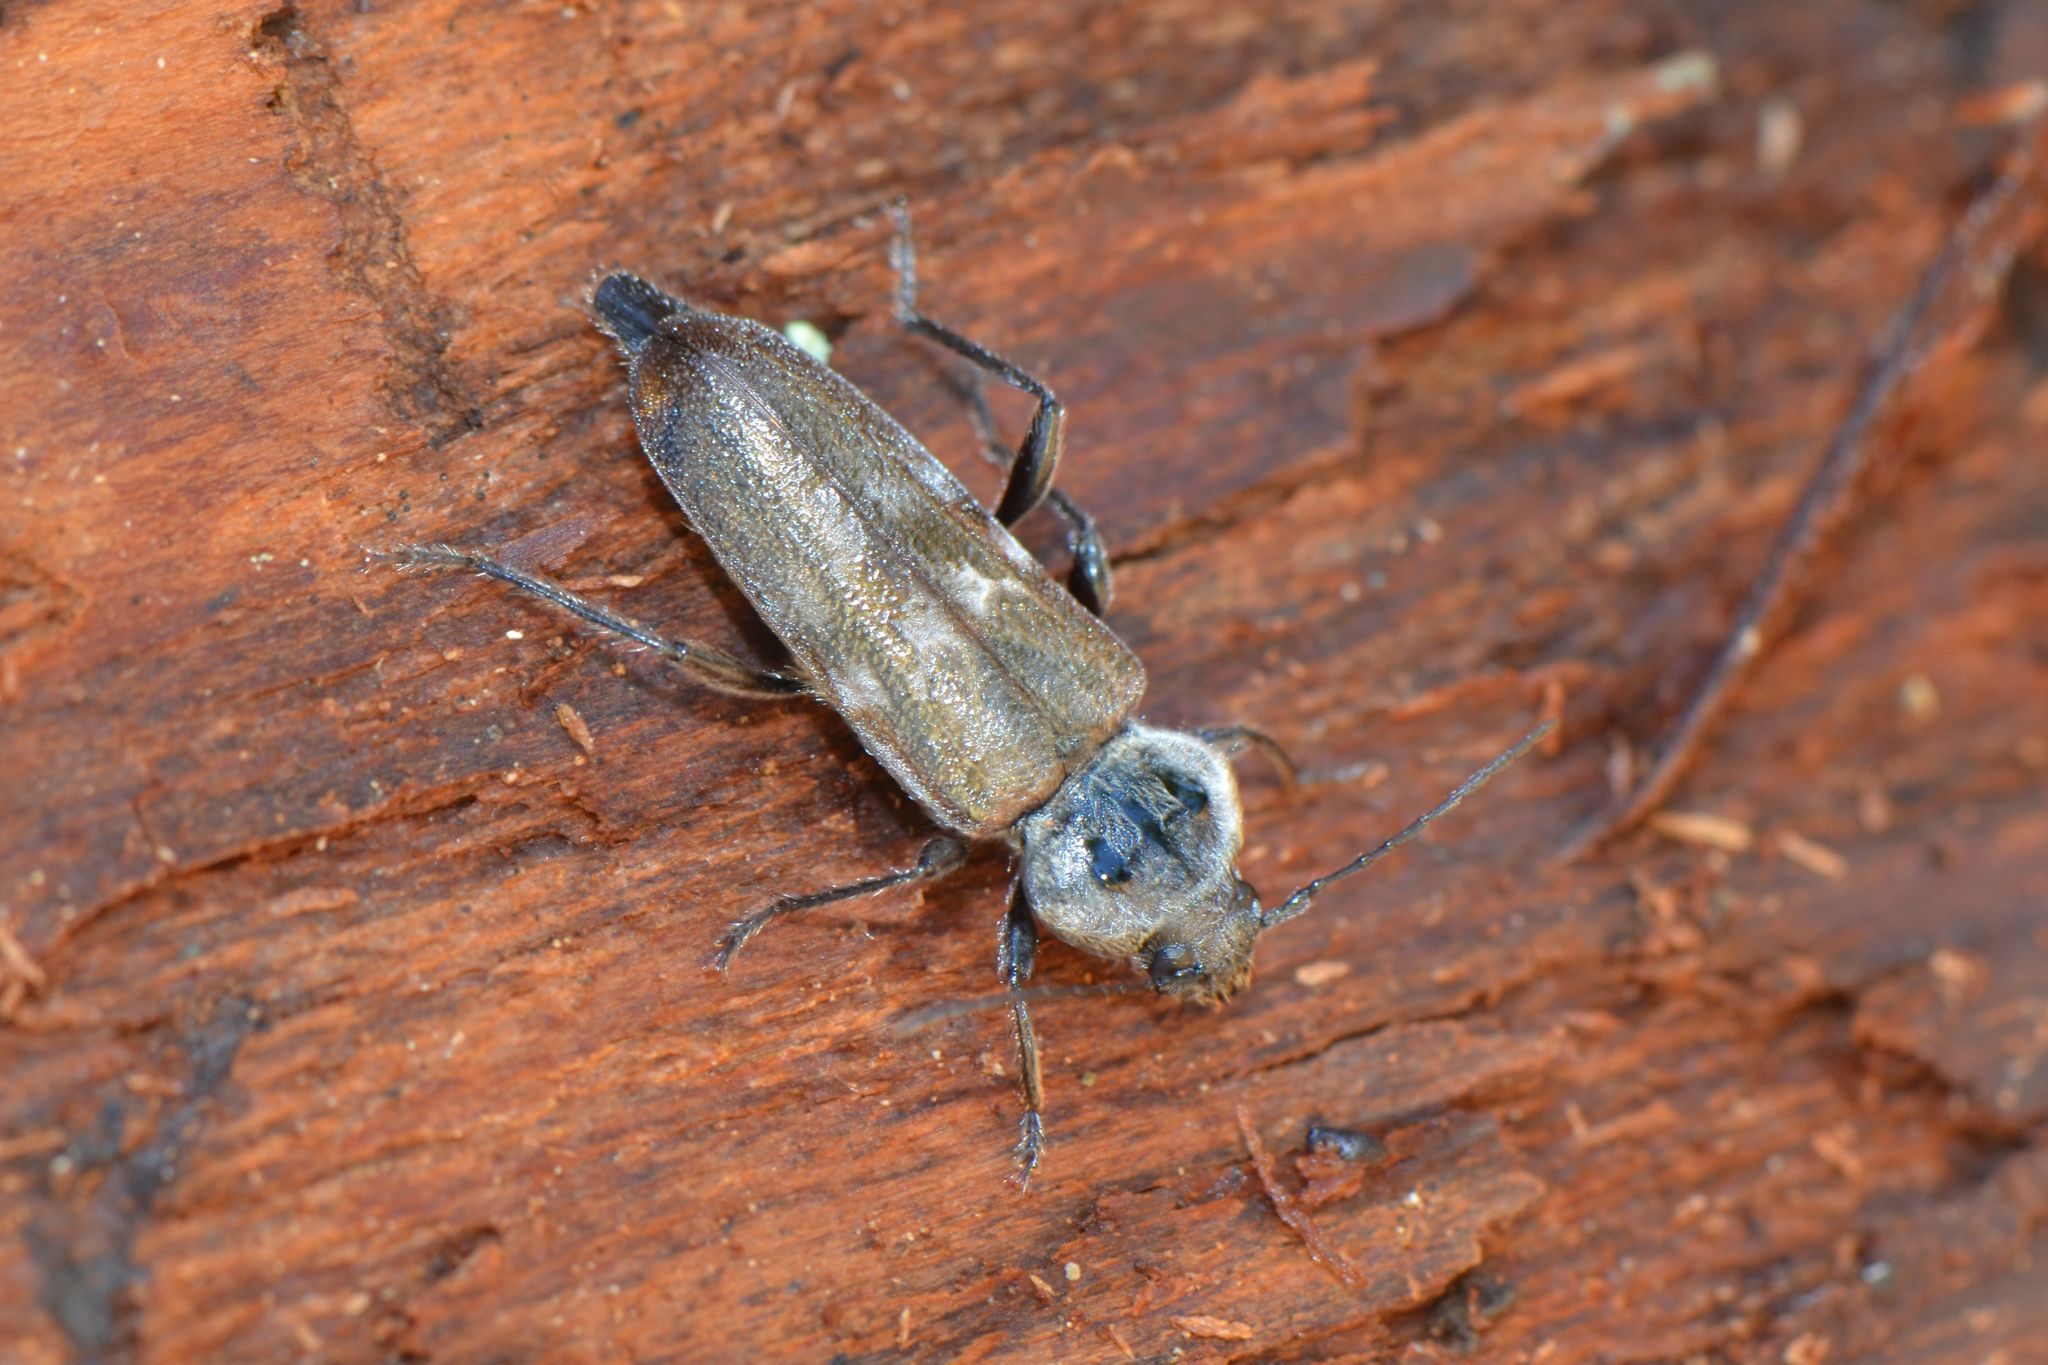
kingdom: Animalia
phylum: Arthropoda
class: Insecta
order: Coleoptera
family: Cerambycidae
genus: Hylotrupes
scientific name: Hylotrupes bajulus
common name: Old house borer
